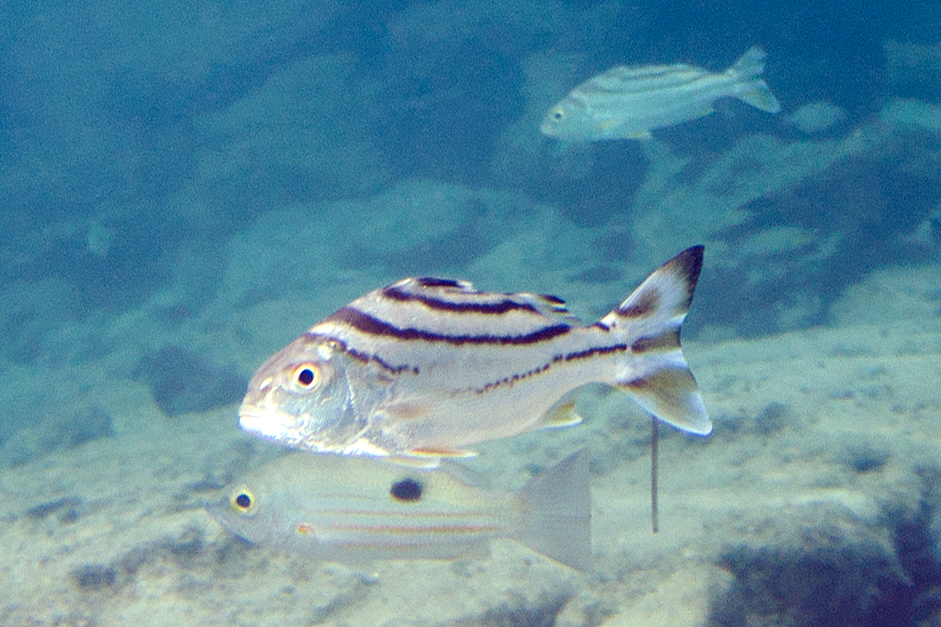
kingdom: Animalia
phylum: Chordata
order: Perciformes
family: Terapontidae
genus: Terapon
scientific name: Terapon jarbua
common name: Jarbua terapon
